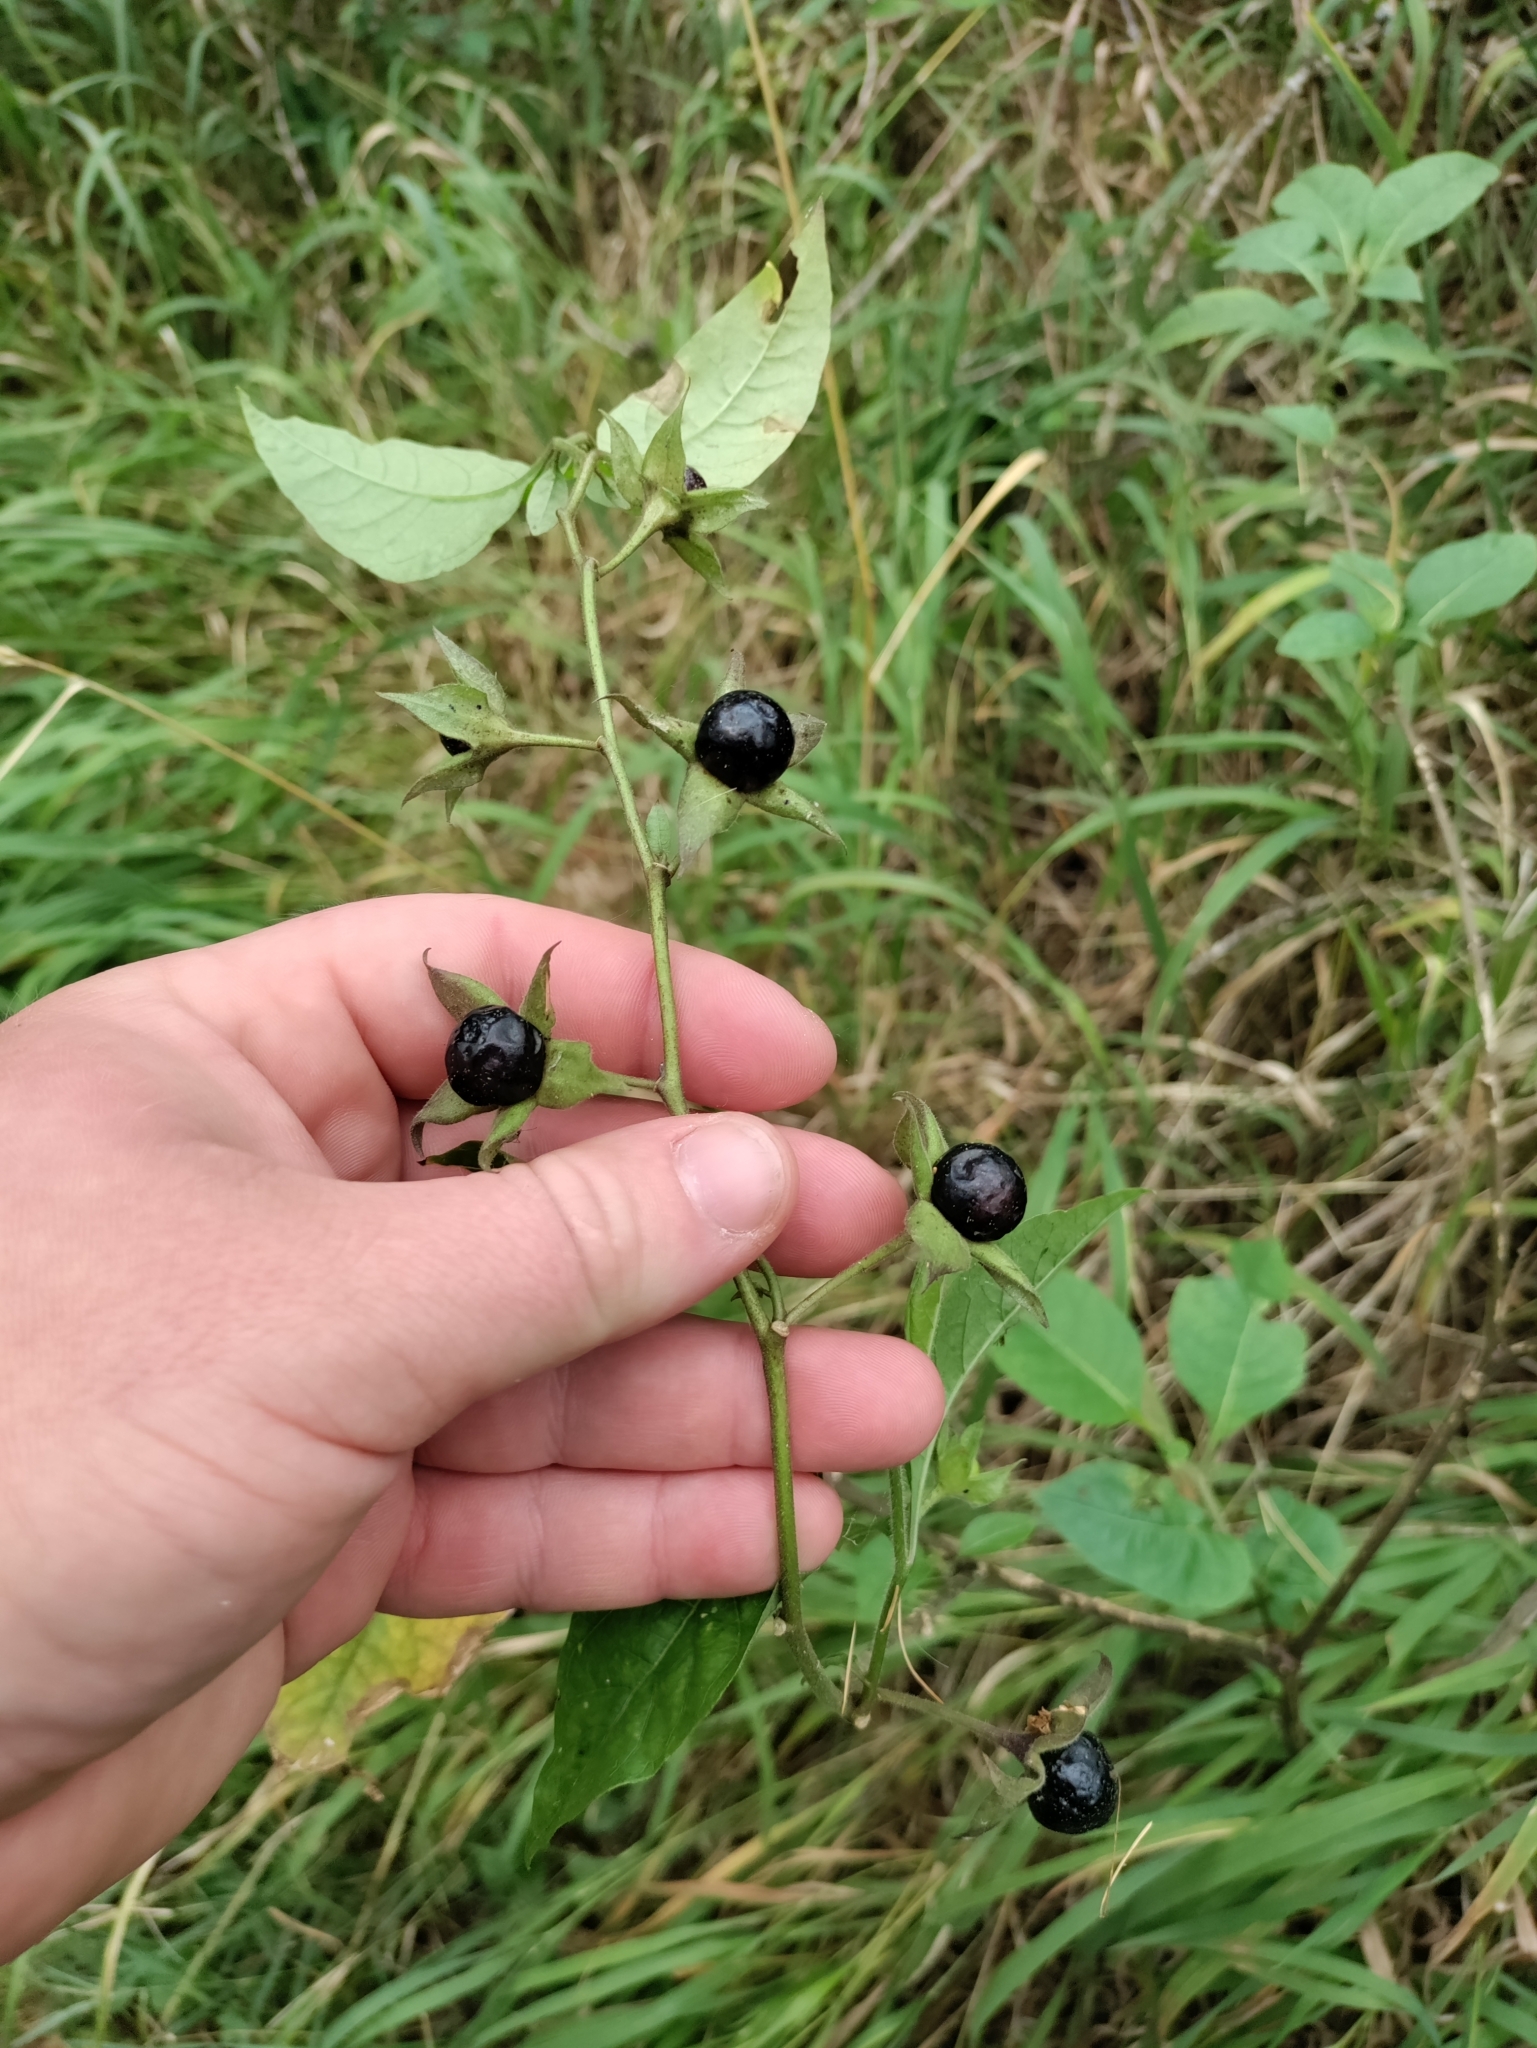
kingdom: Plantae
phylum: Tracheophyta
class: Magnoliopsida
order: Solanales
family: Solanaceae
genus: Atropa
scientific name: Atropa belladonna
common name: Deadly nightshade
